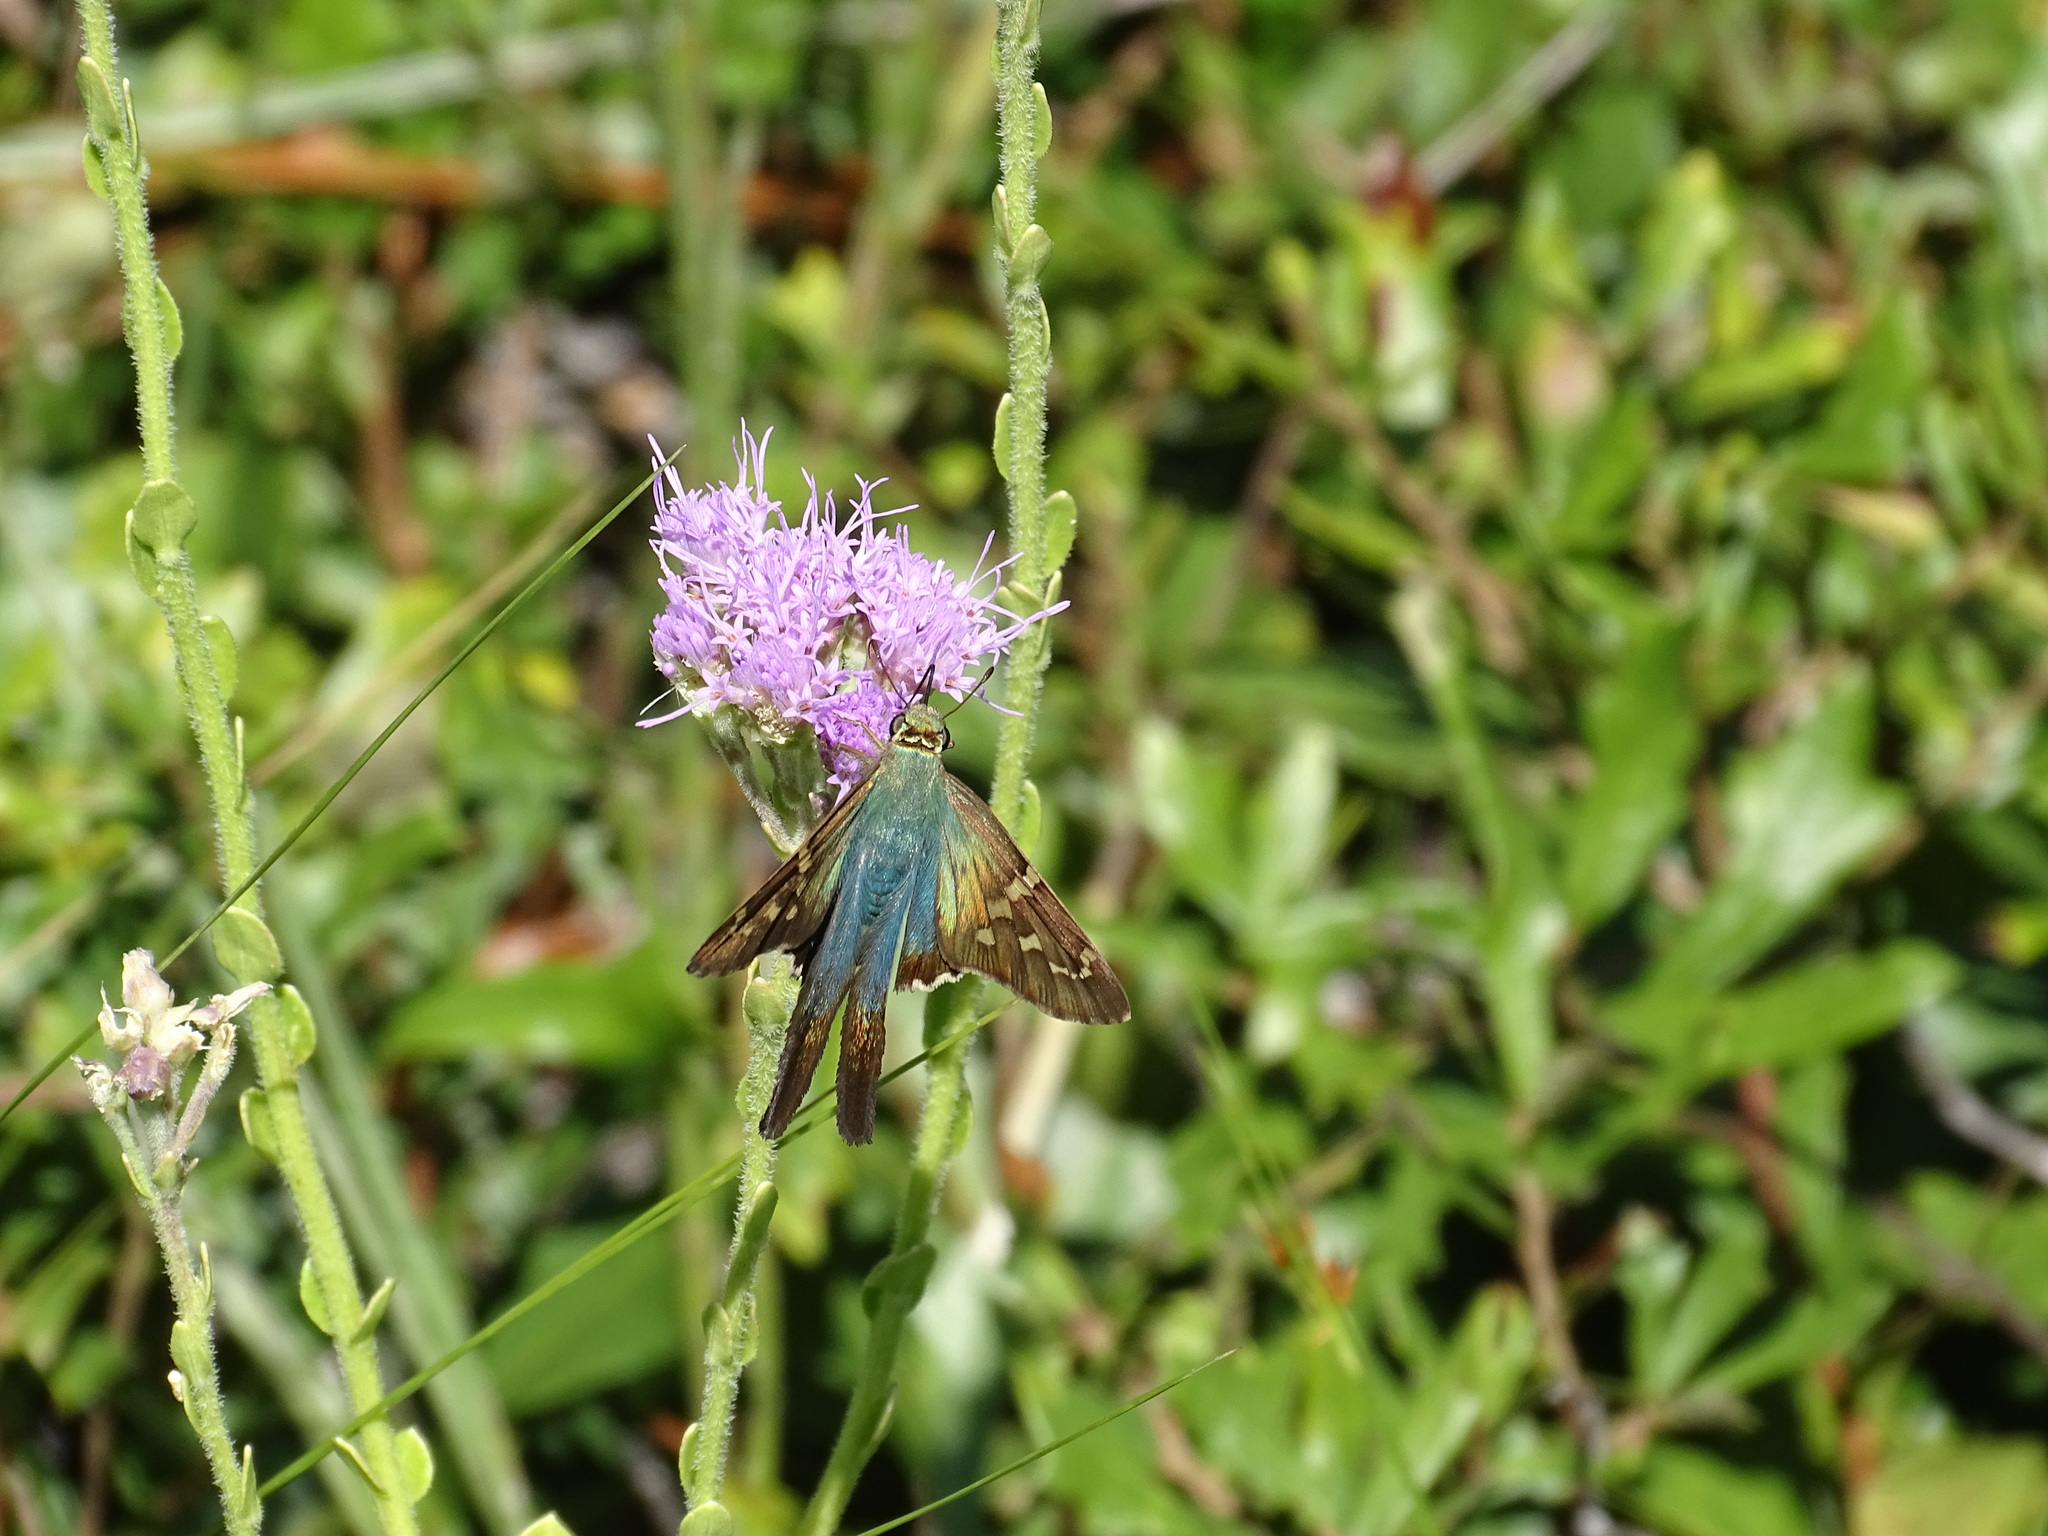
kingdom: Animalia
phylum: Arthropoda
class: Insecta
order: Lepidoptera
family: Hesperiidae
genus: Urbanus
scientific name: Urbanus proteus
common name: Long-tailed skipper
